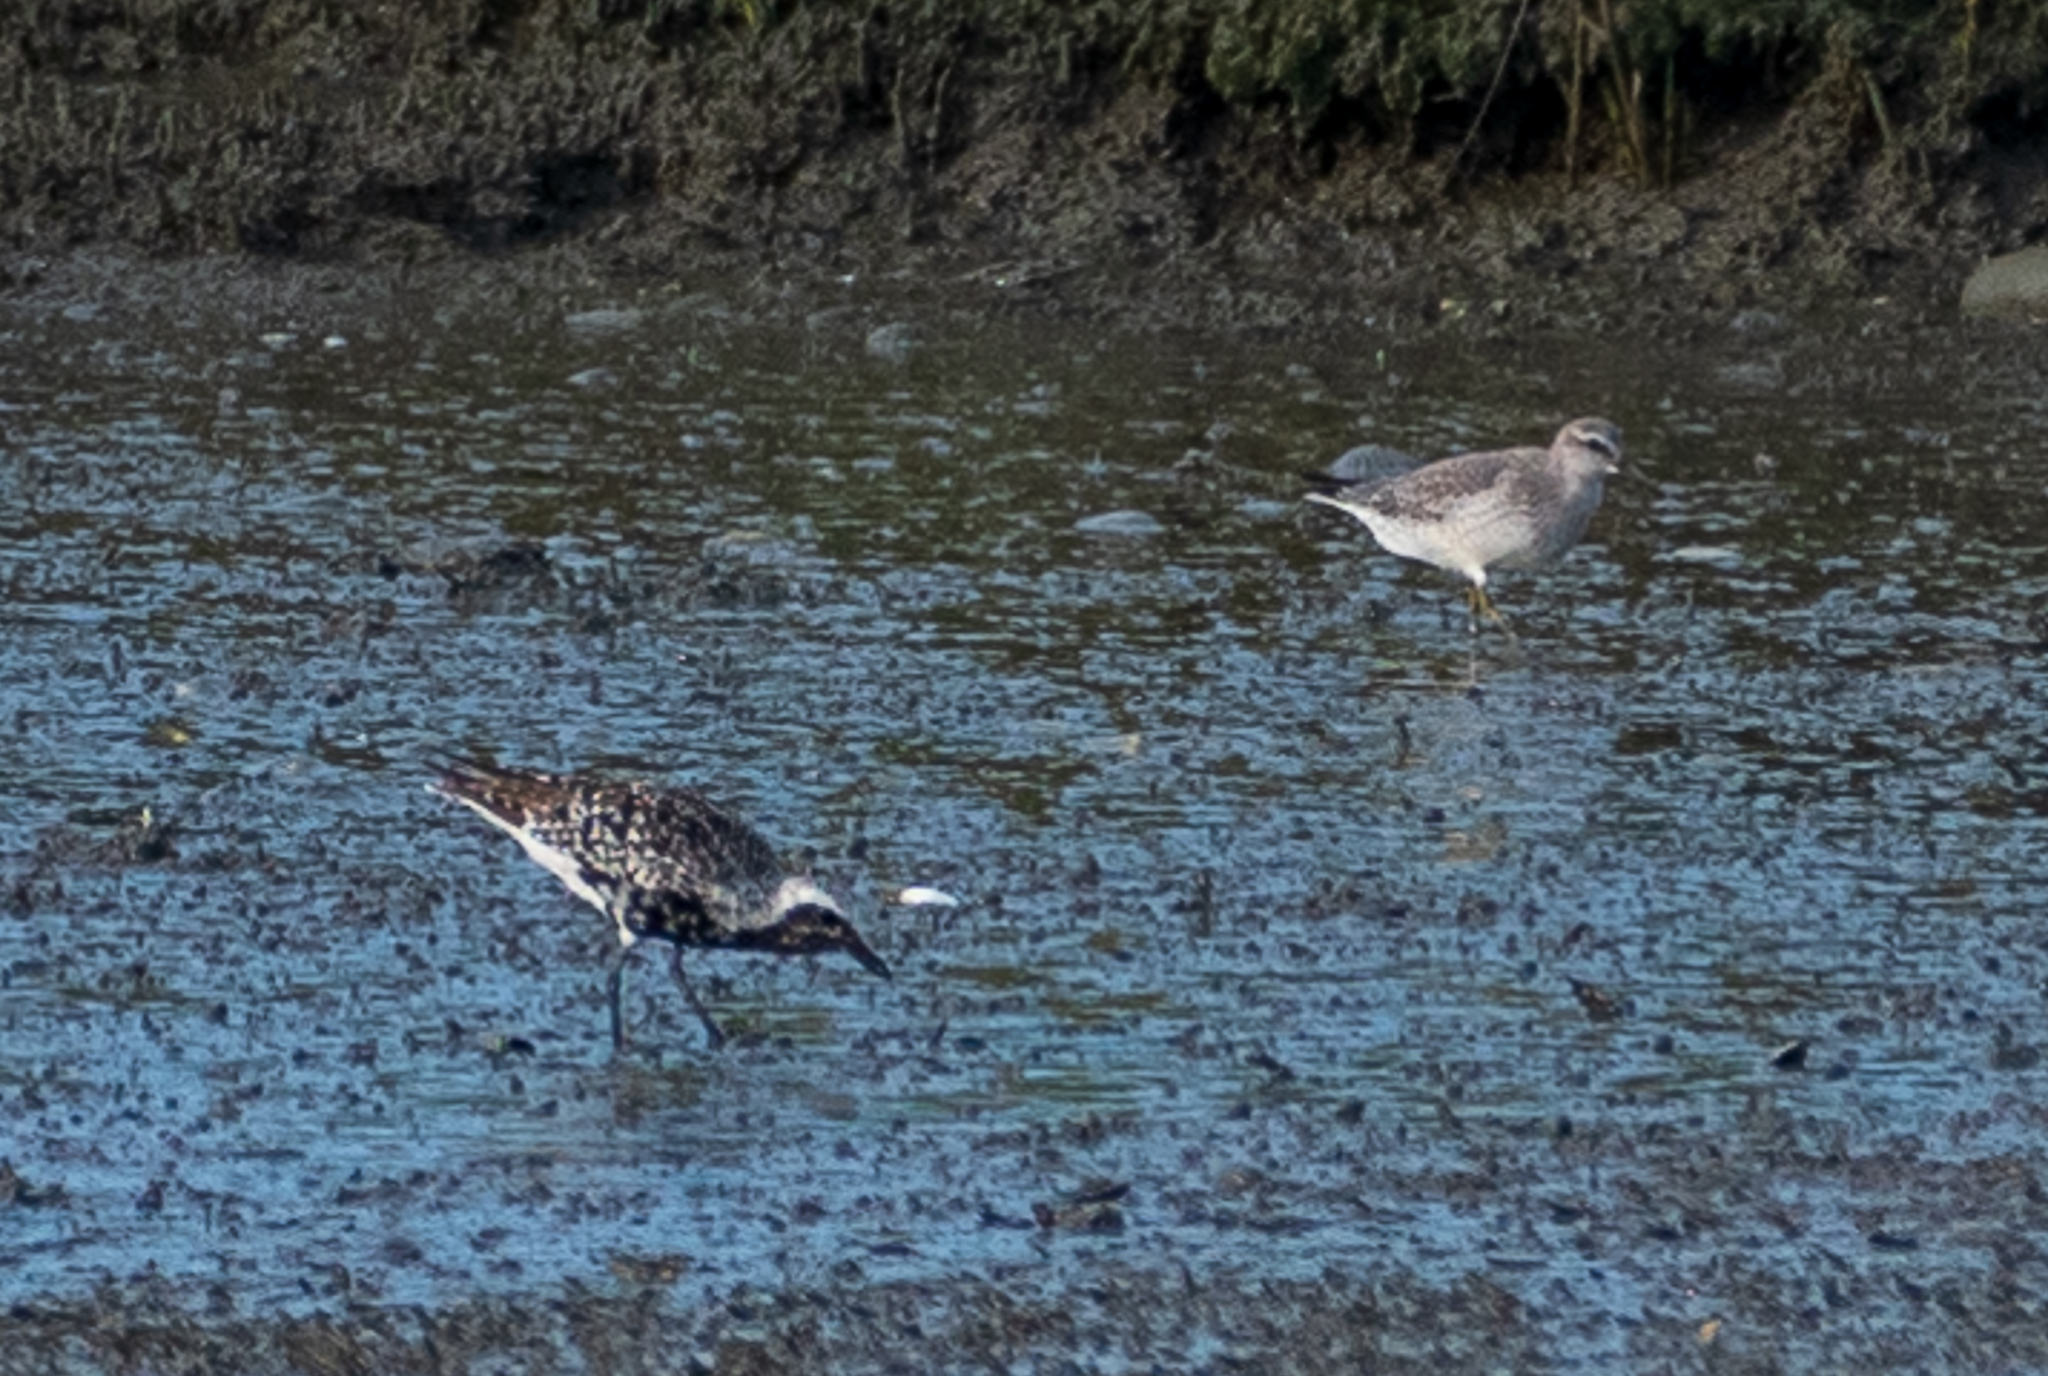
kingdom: Animalia
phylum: Chordata
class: Aves
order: Charadriiformes
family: Charadriidae
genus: Pluvialis
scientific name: Pluvialis squatarola
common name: Grey plover
